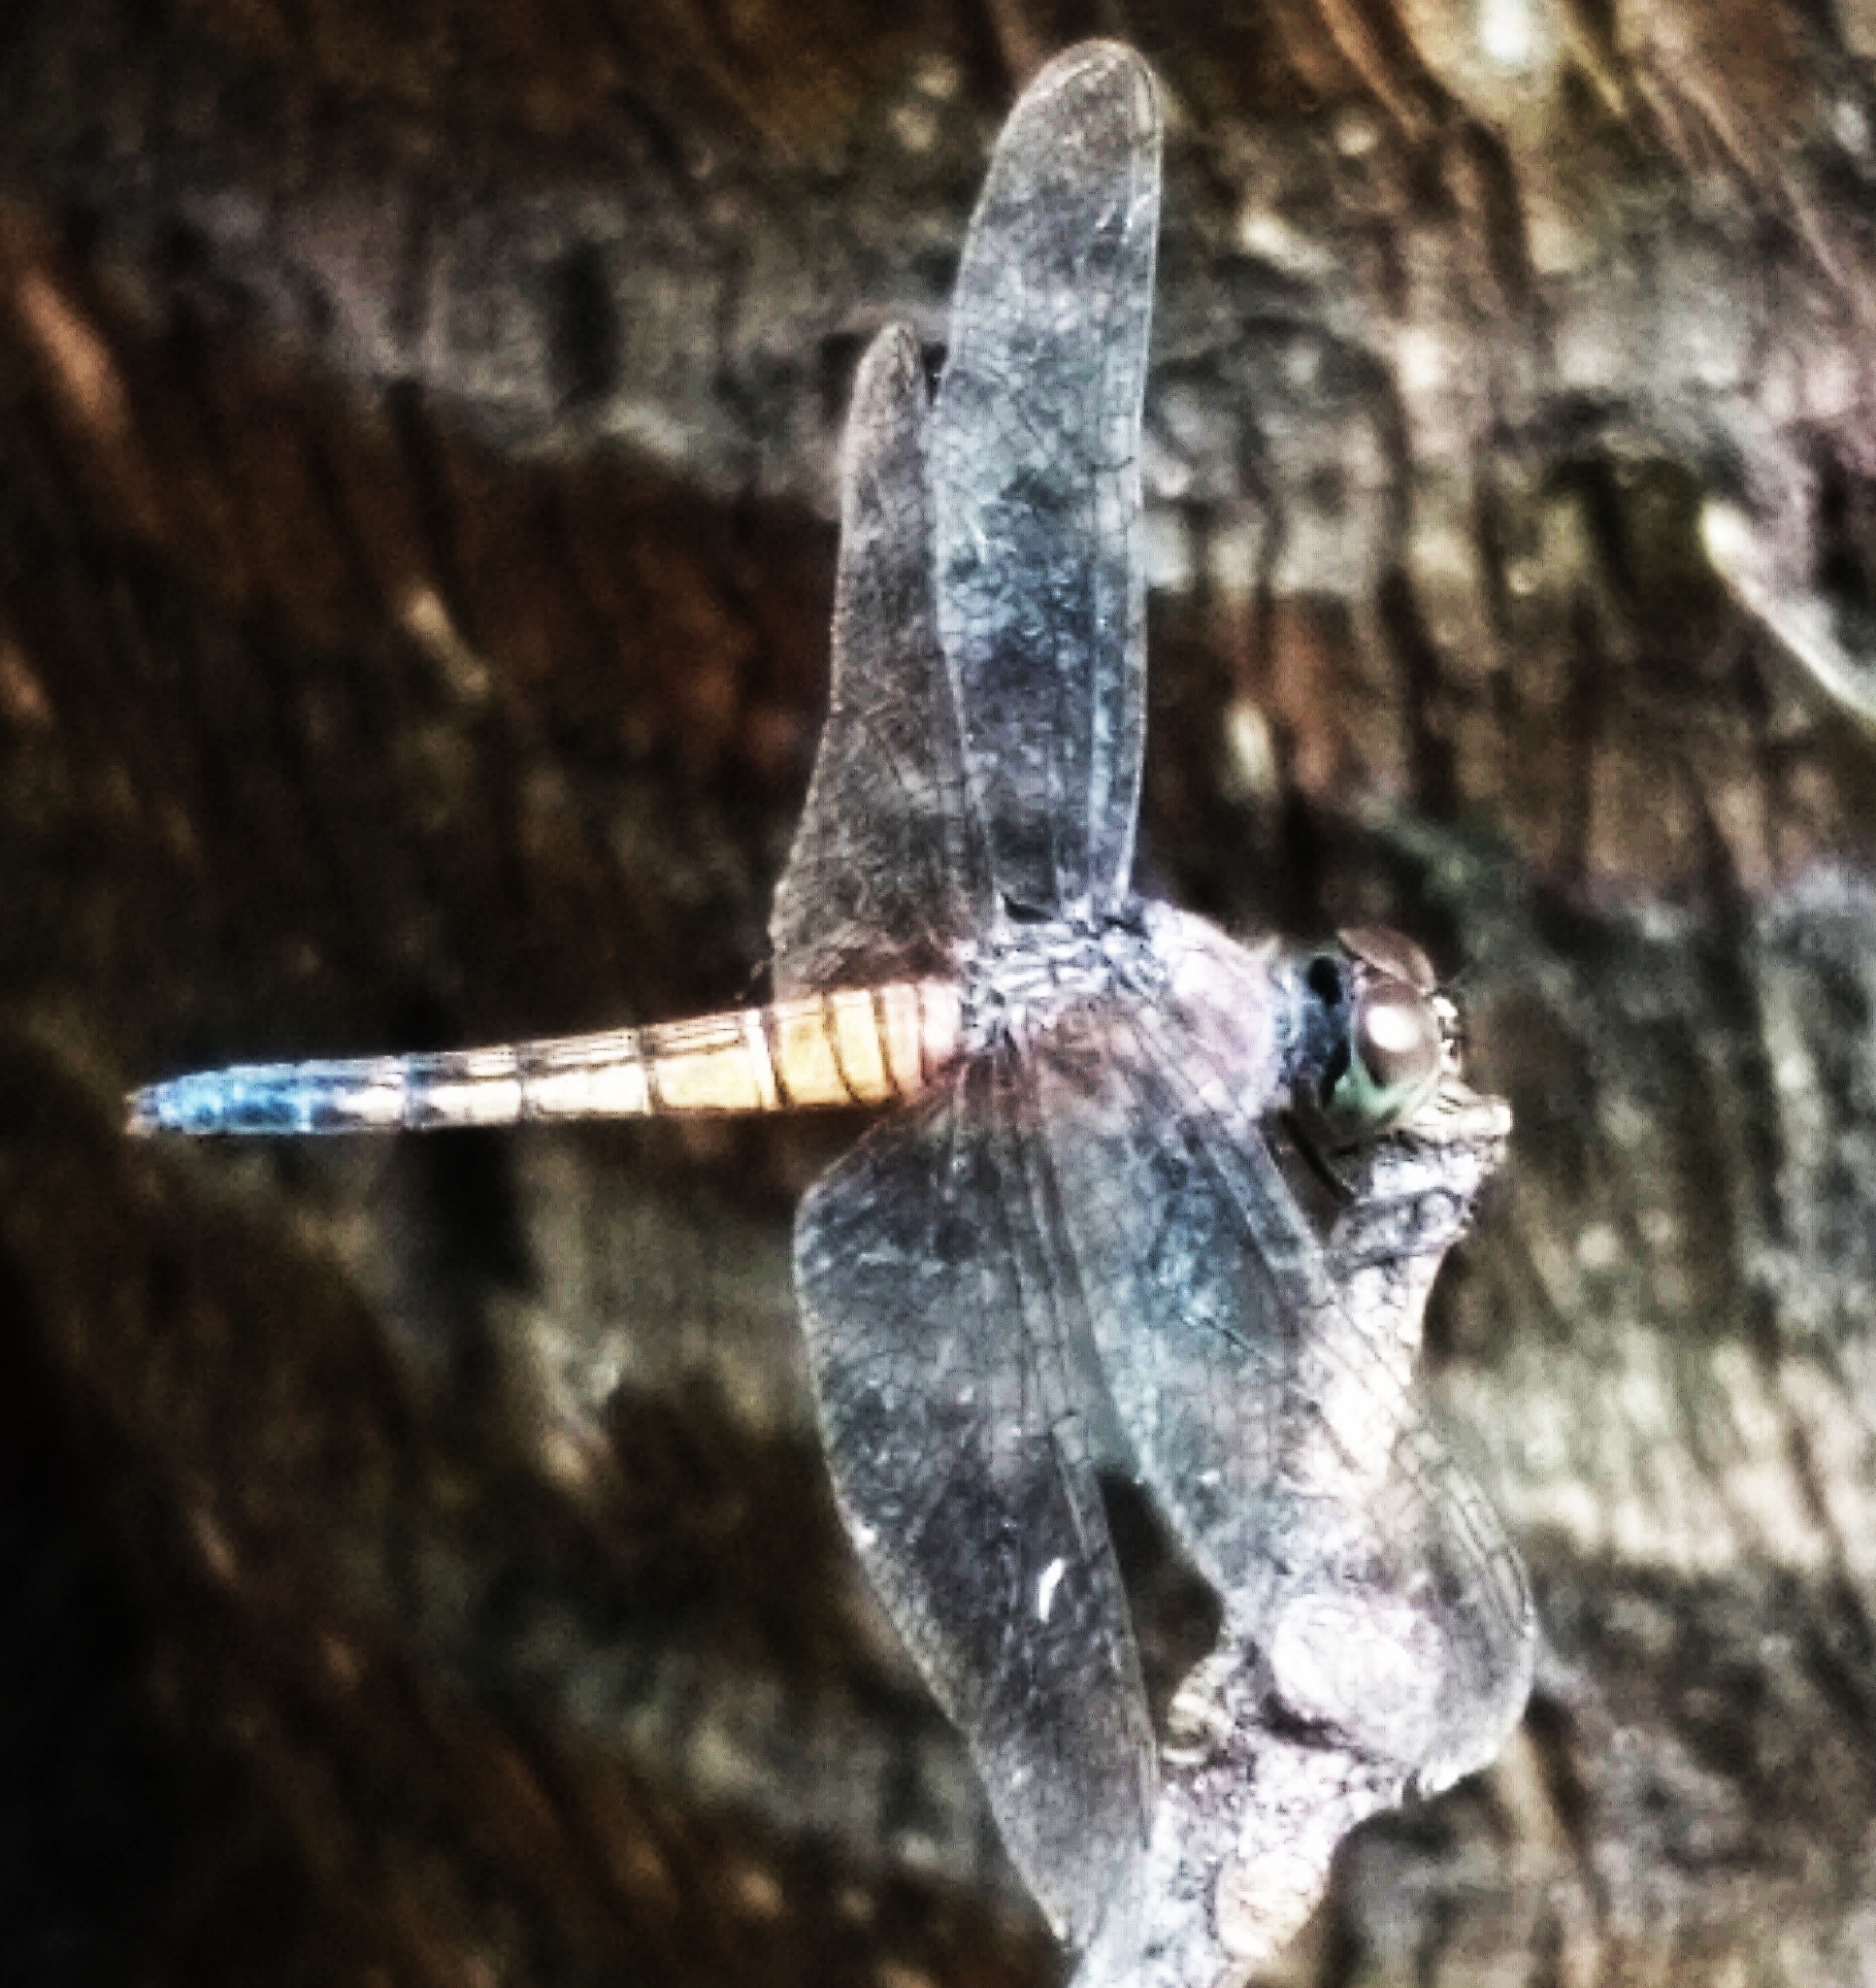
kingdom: Animalia
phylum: Arthropoda
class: Insecta
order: Odonata
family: Libellulidae
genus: Brachydiplax
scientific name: Brachydiplax chalybea
